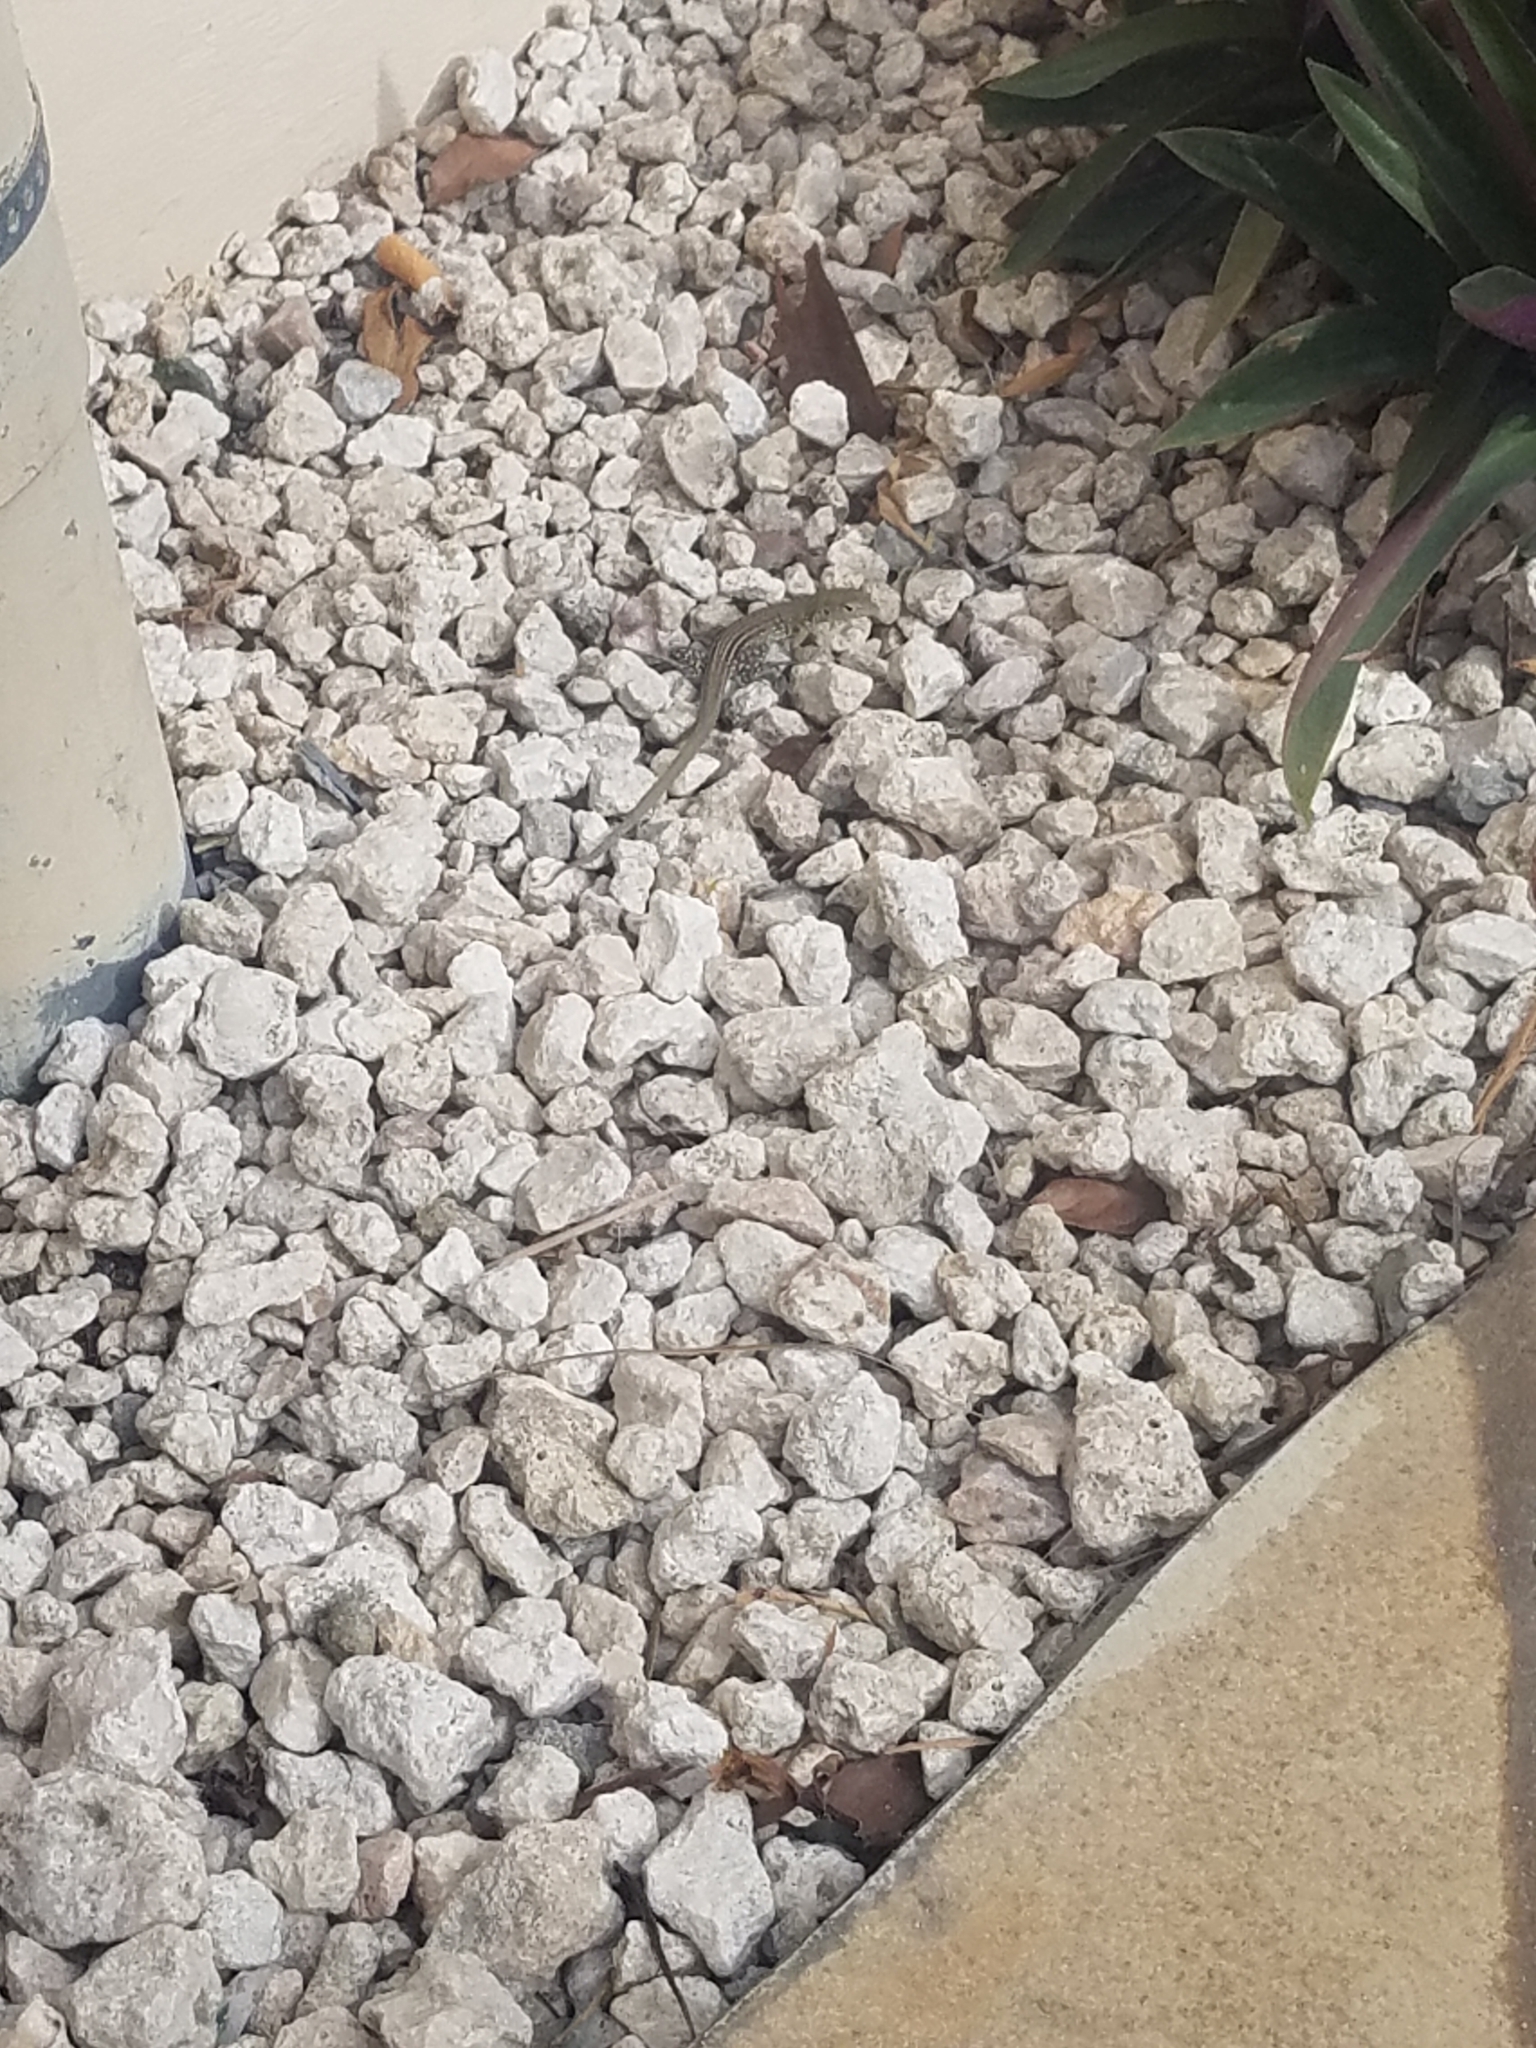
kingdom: Animalia
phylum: Chordata
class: Squamata
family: Teiidae
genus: Cnemidophorus
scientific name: Cnemidophorus arubensis
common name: Aruba whiptail
